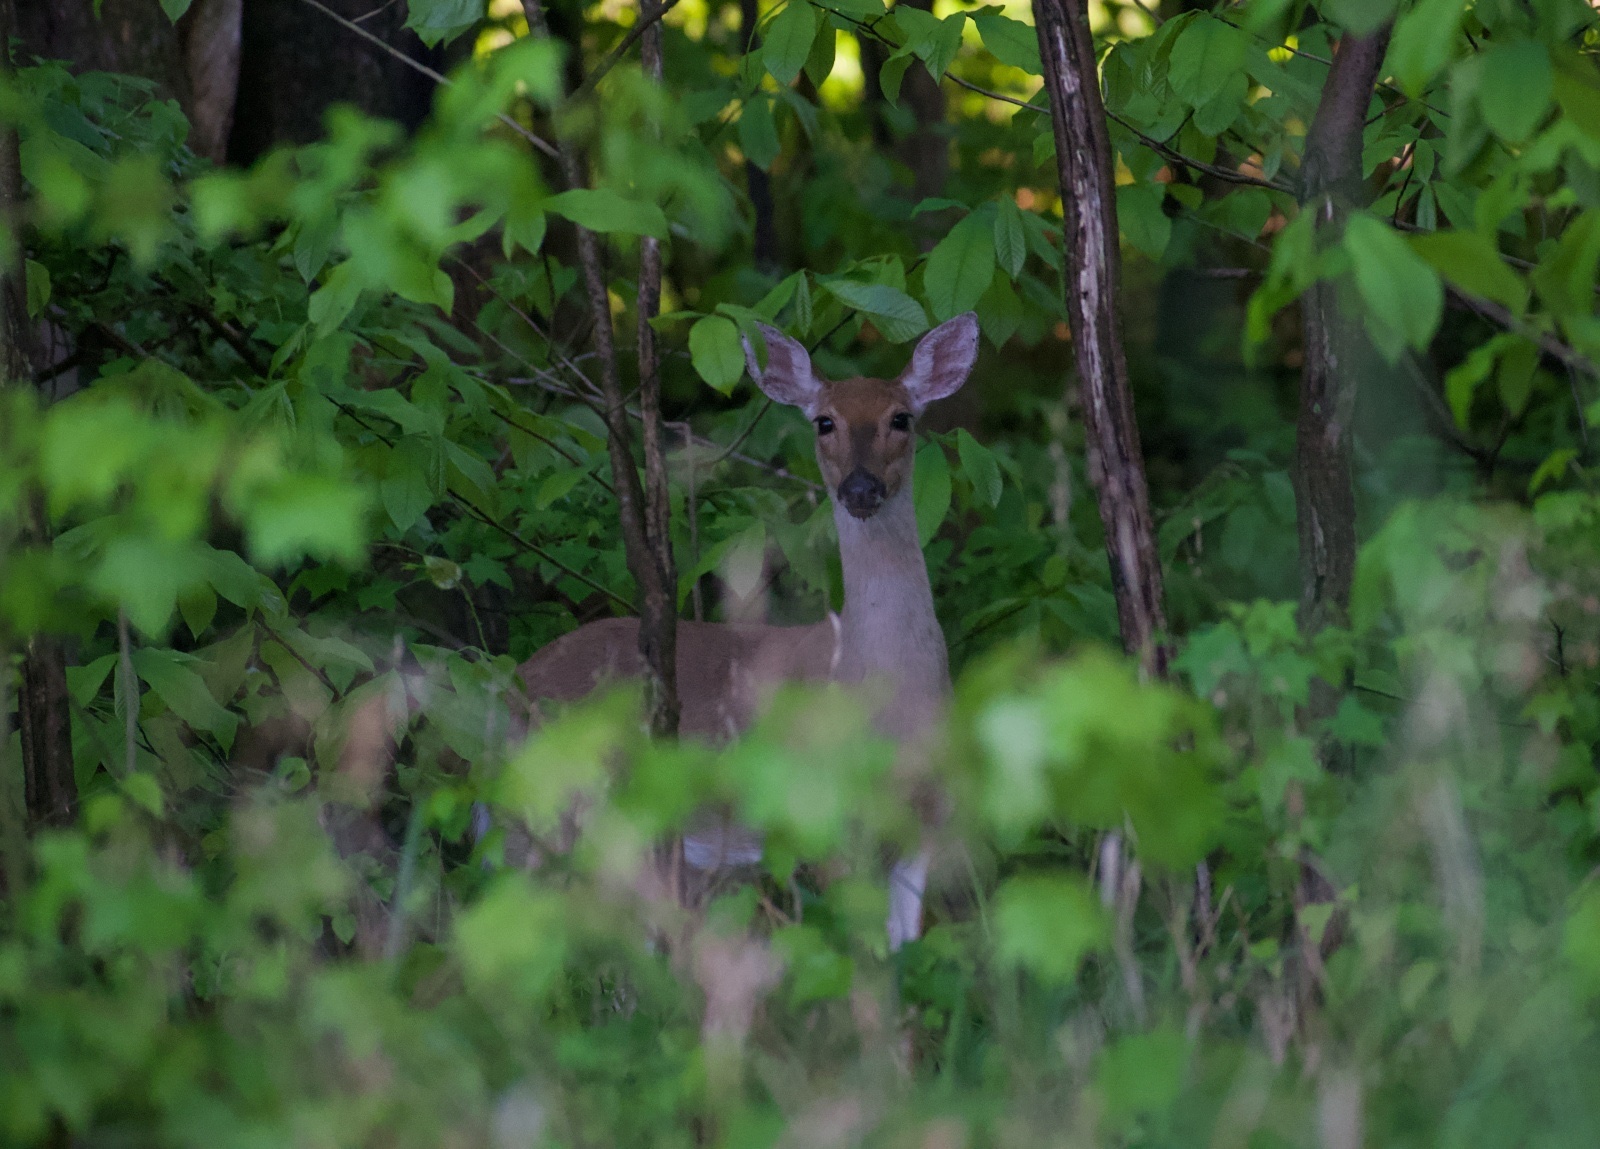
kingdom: Animalia
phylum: Chordata
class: Mammalia
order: Artiodactyla
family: Cervidae
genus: Odocoileus
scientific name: Odocoileus virginianus
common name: White-tailed deer
